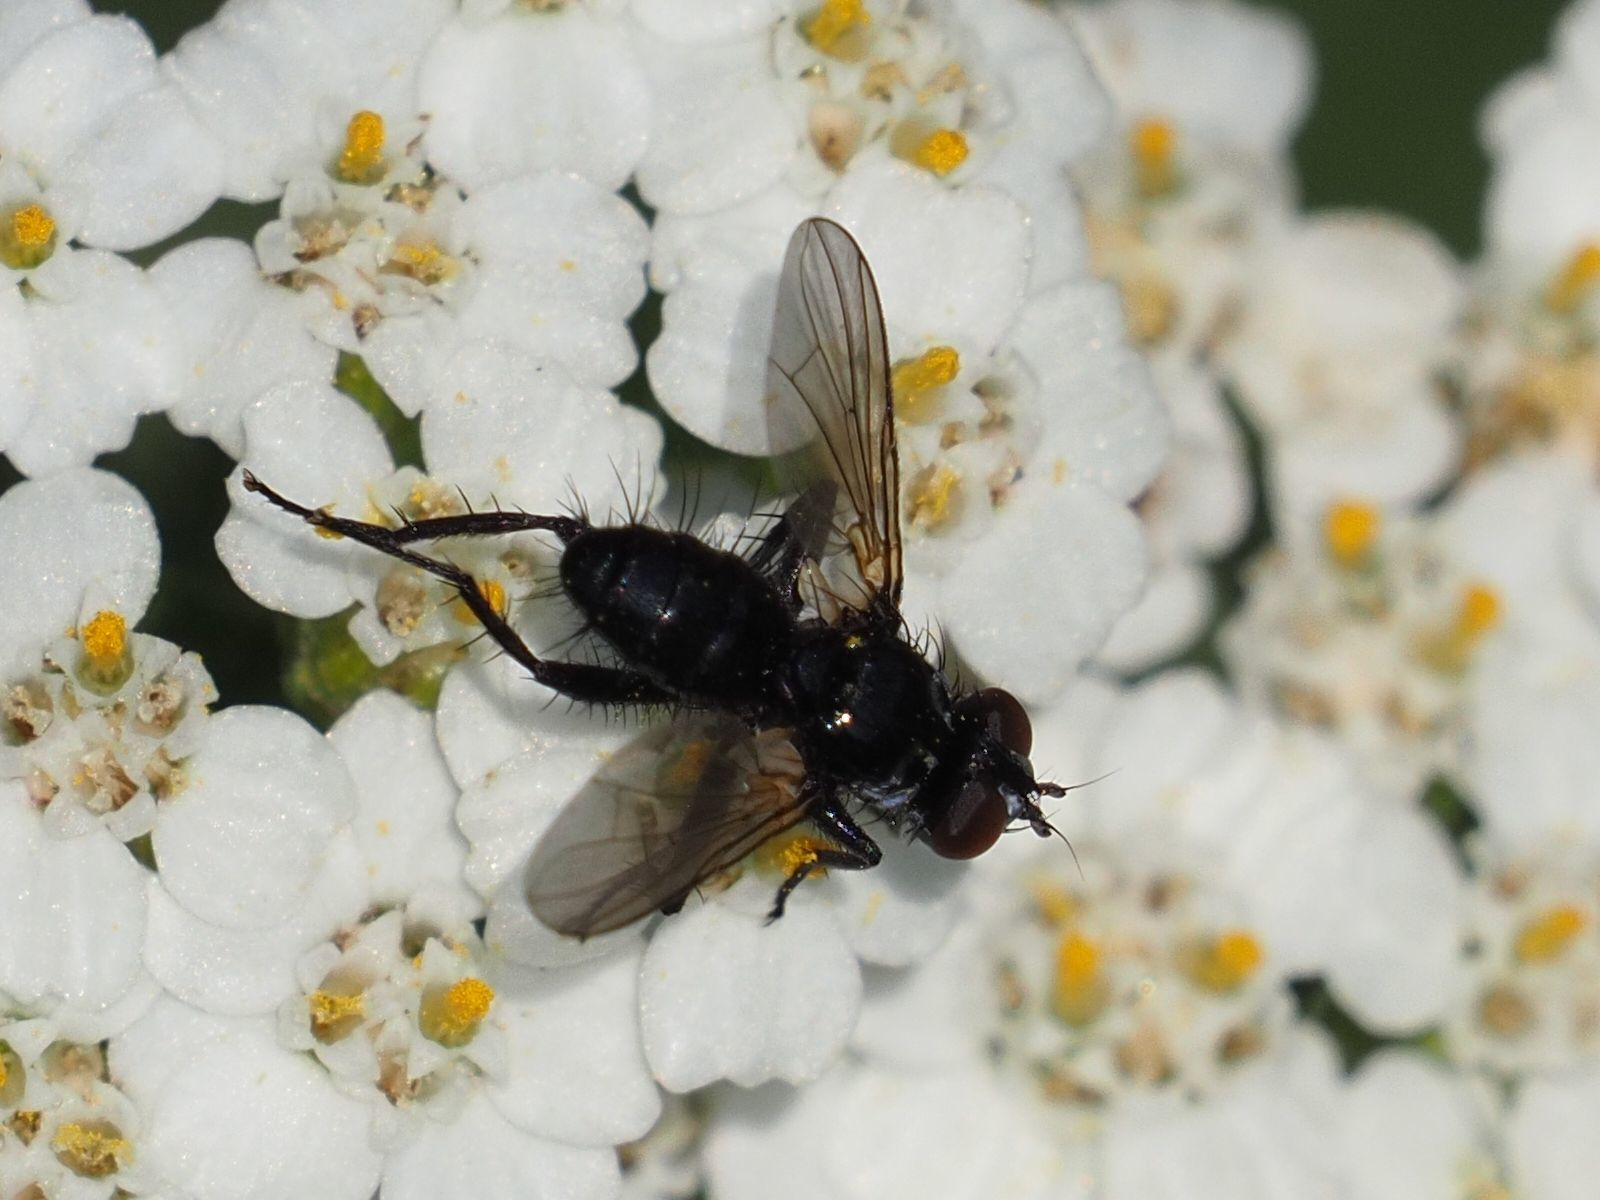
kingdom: Animalia
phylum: Arthropoda
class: Insecta
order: Diptera
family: Tachinidae
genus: Phania
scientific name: Phania funesta
